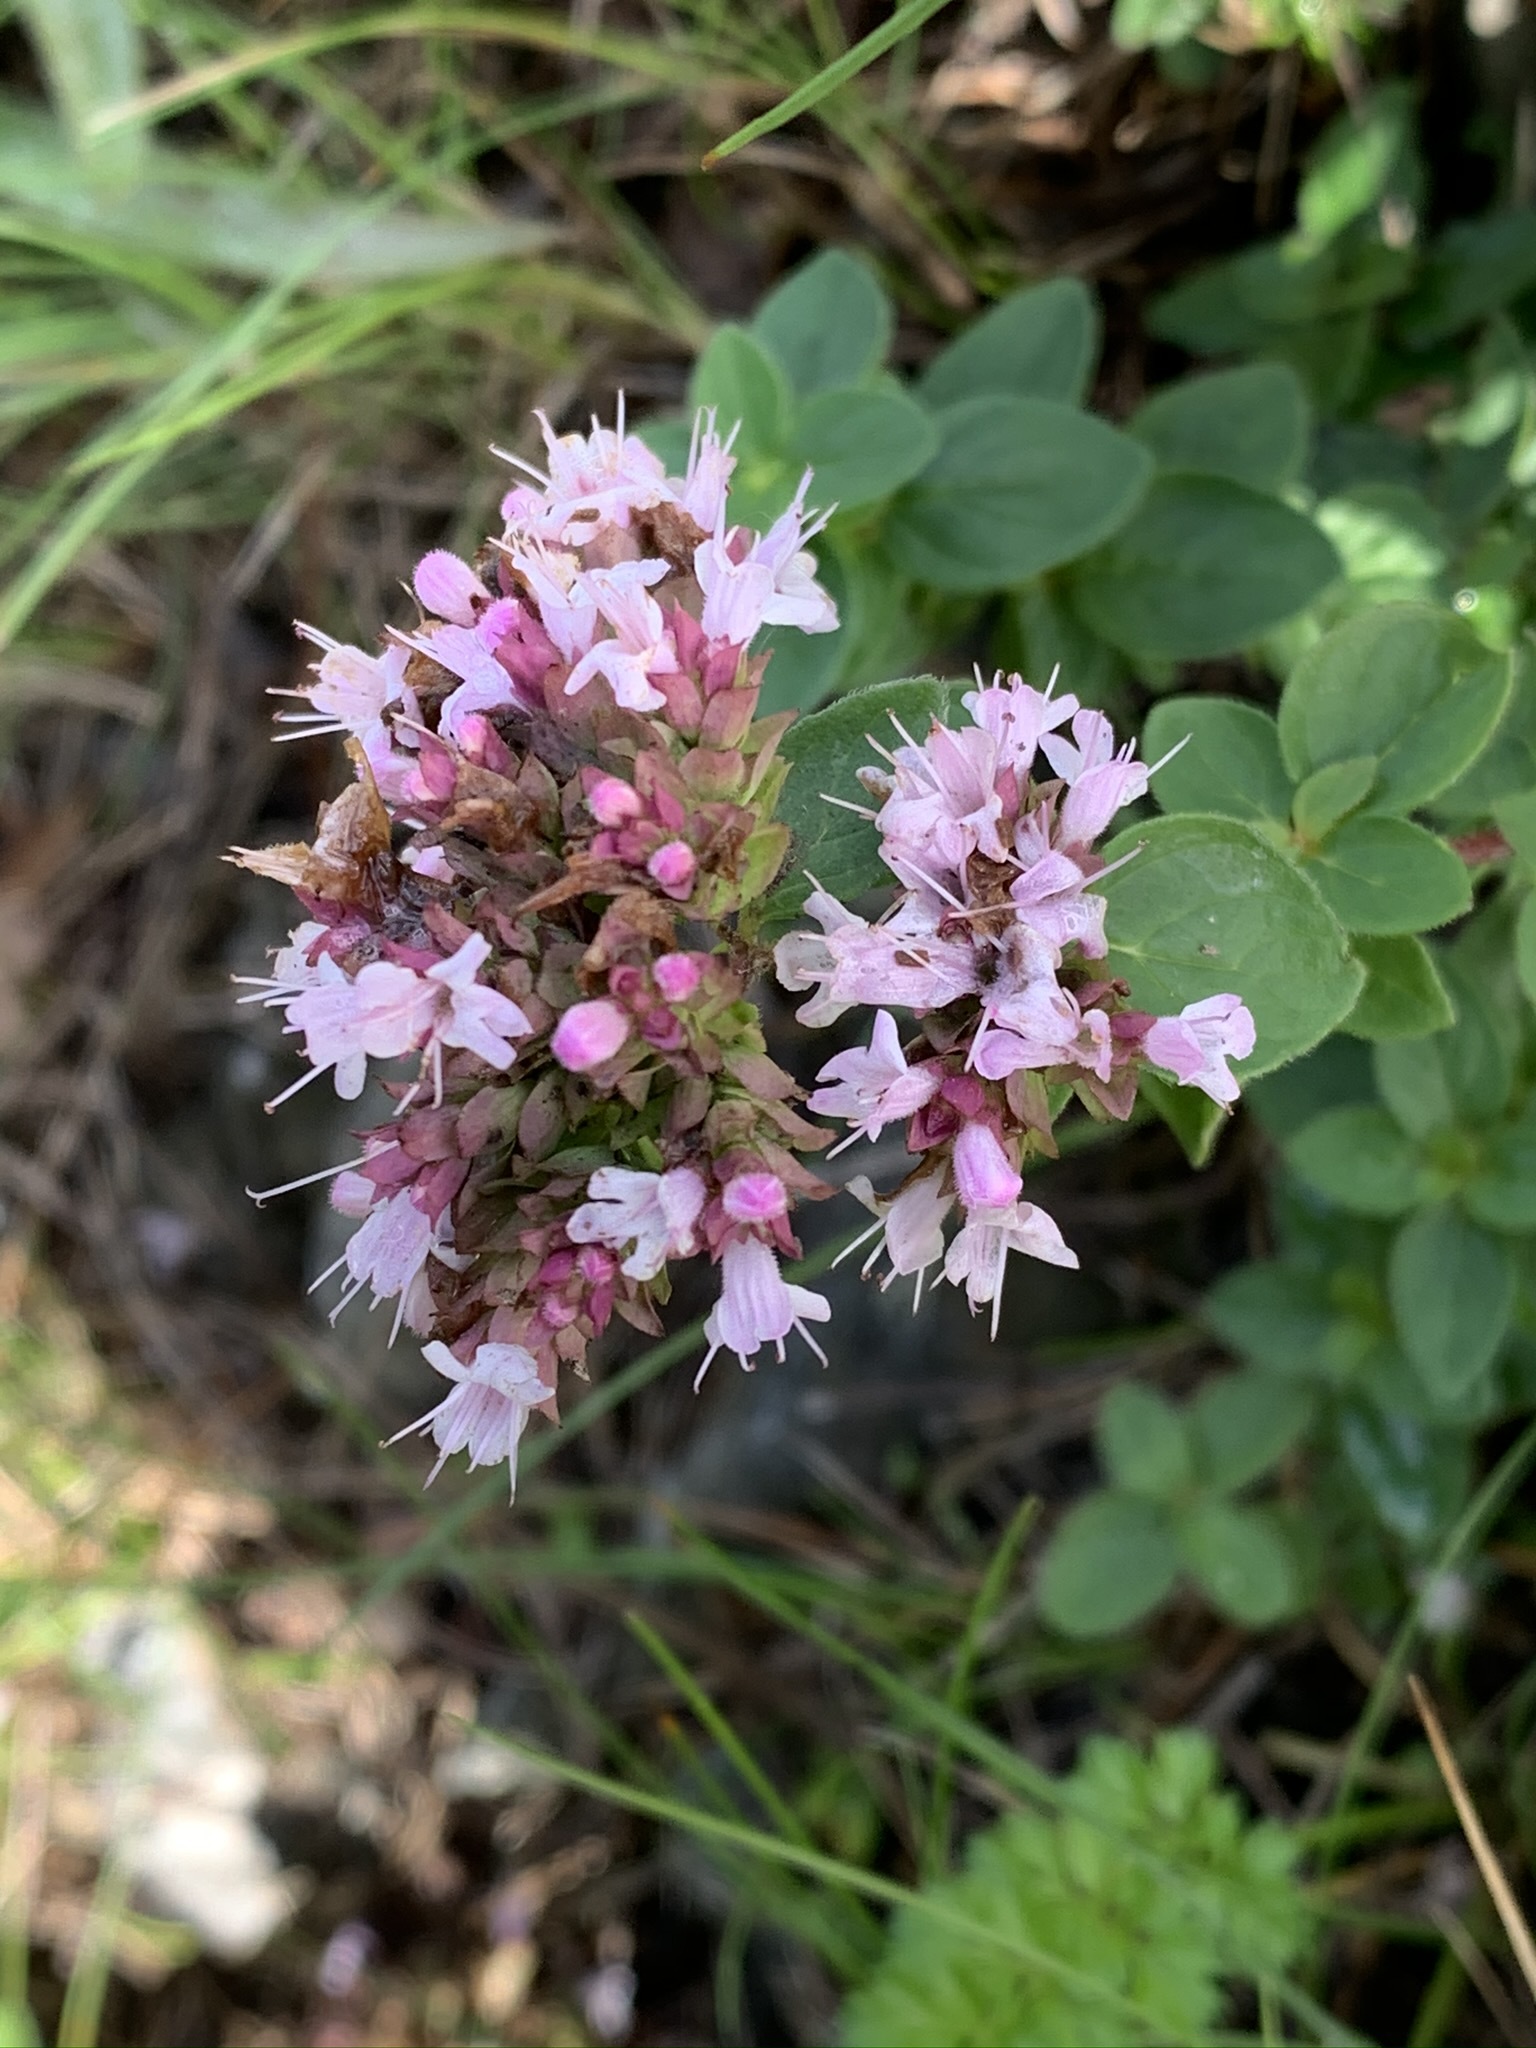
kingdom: Plantae
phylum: Tracheophyta
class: Magnoliopsida
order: Lamiales
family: Lamiaceae
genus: Origanum
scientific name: Origanum vulgare
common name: Wild marjoram
